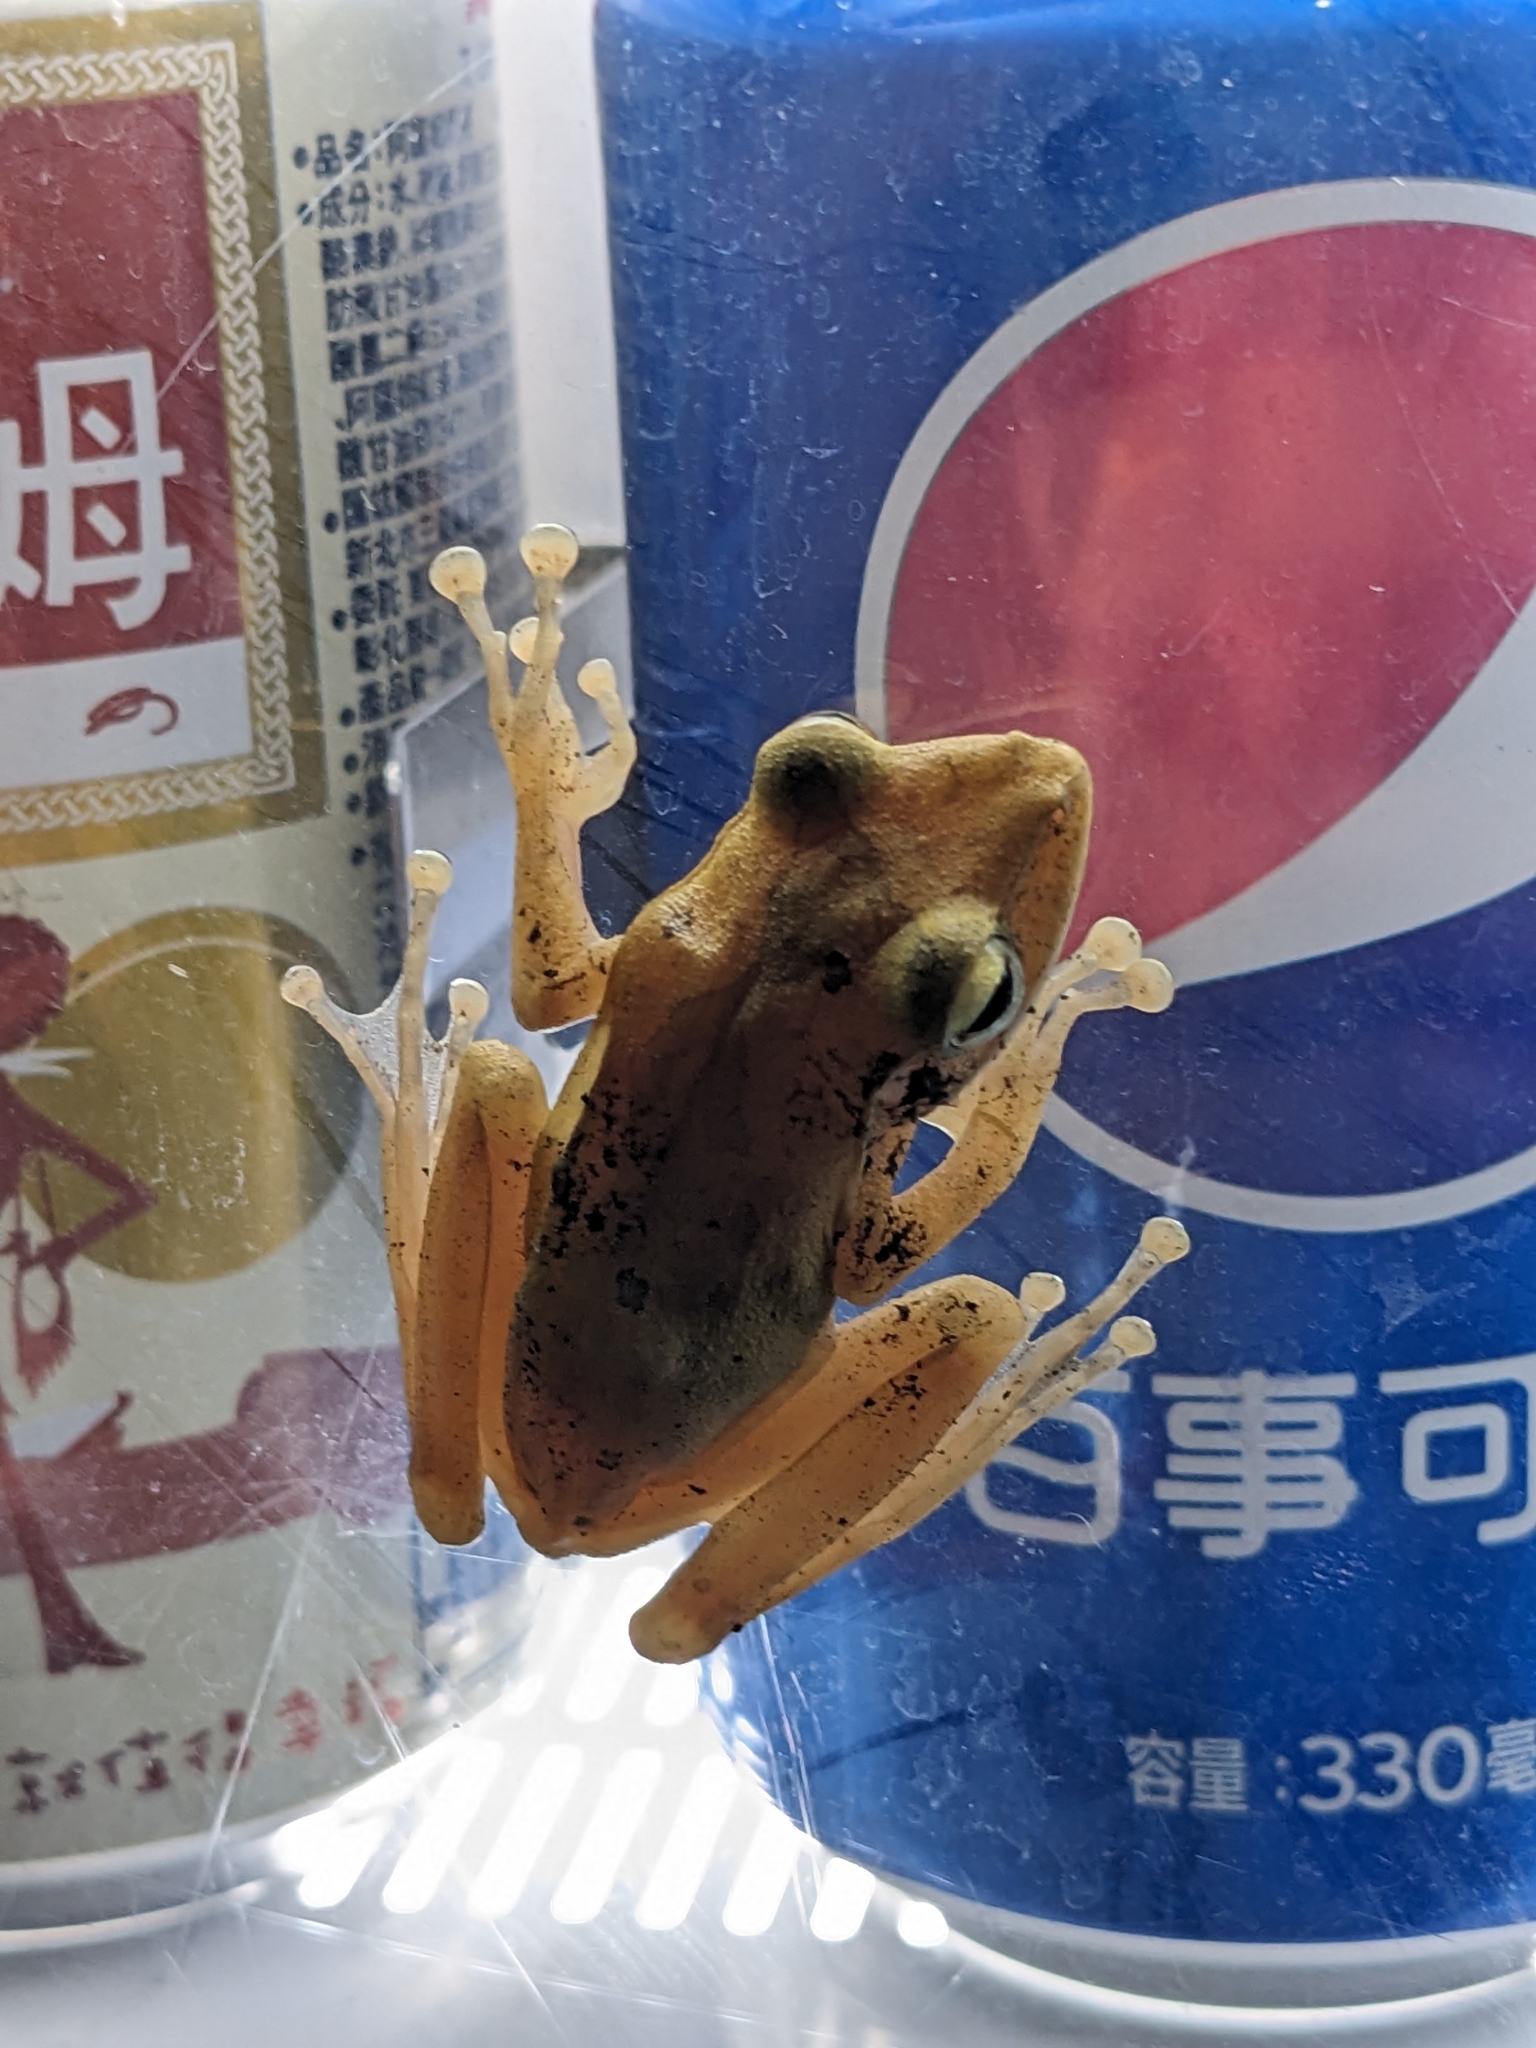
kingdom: Animalia
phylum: Chordata
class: Amphibia
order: Anura
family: Rhacophoridae
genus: Polypedates
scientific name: Polypedates megacephalus
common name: Hong kong whipping frog
